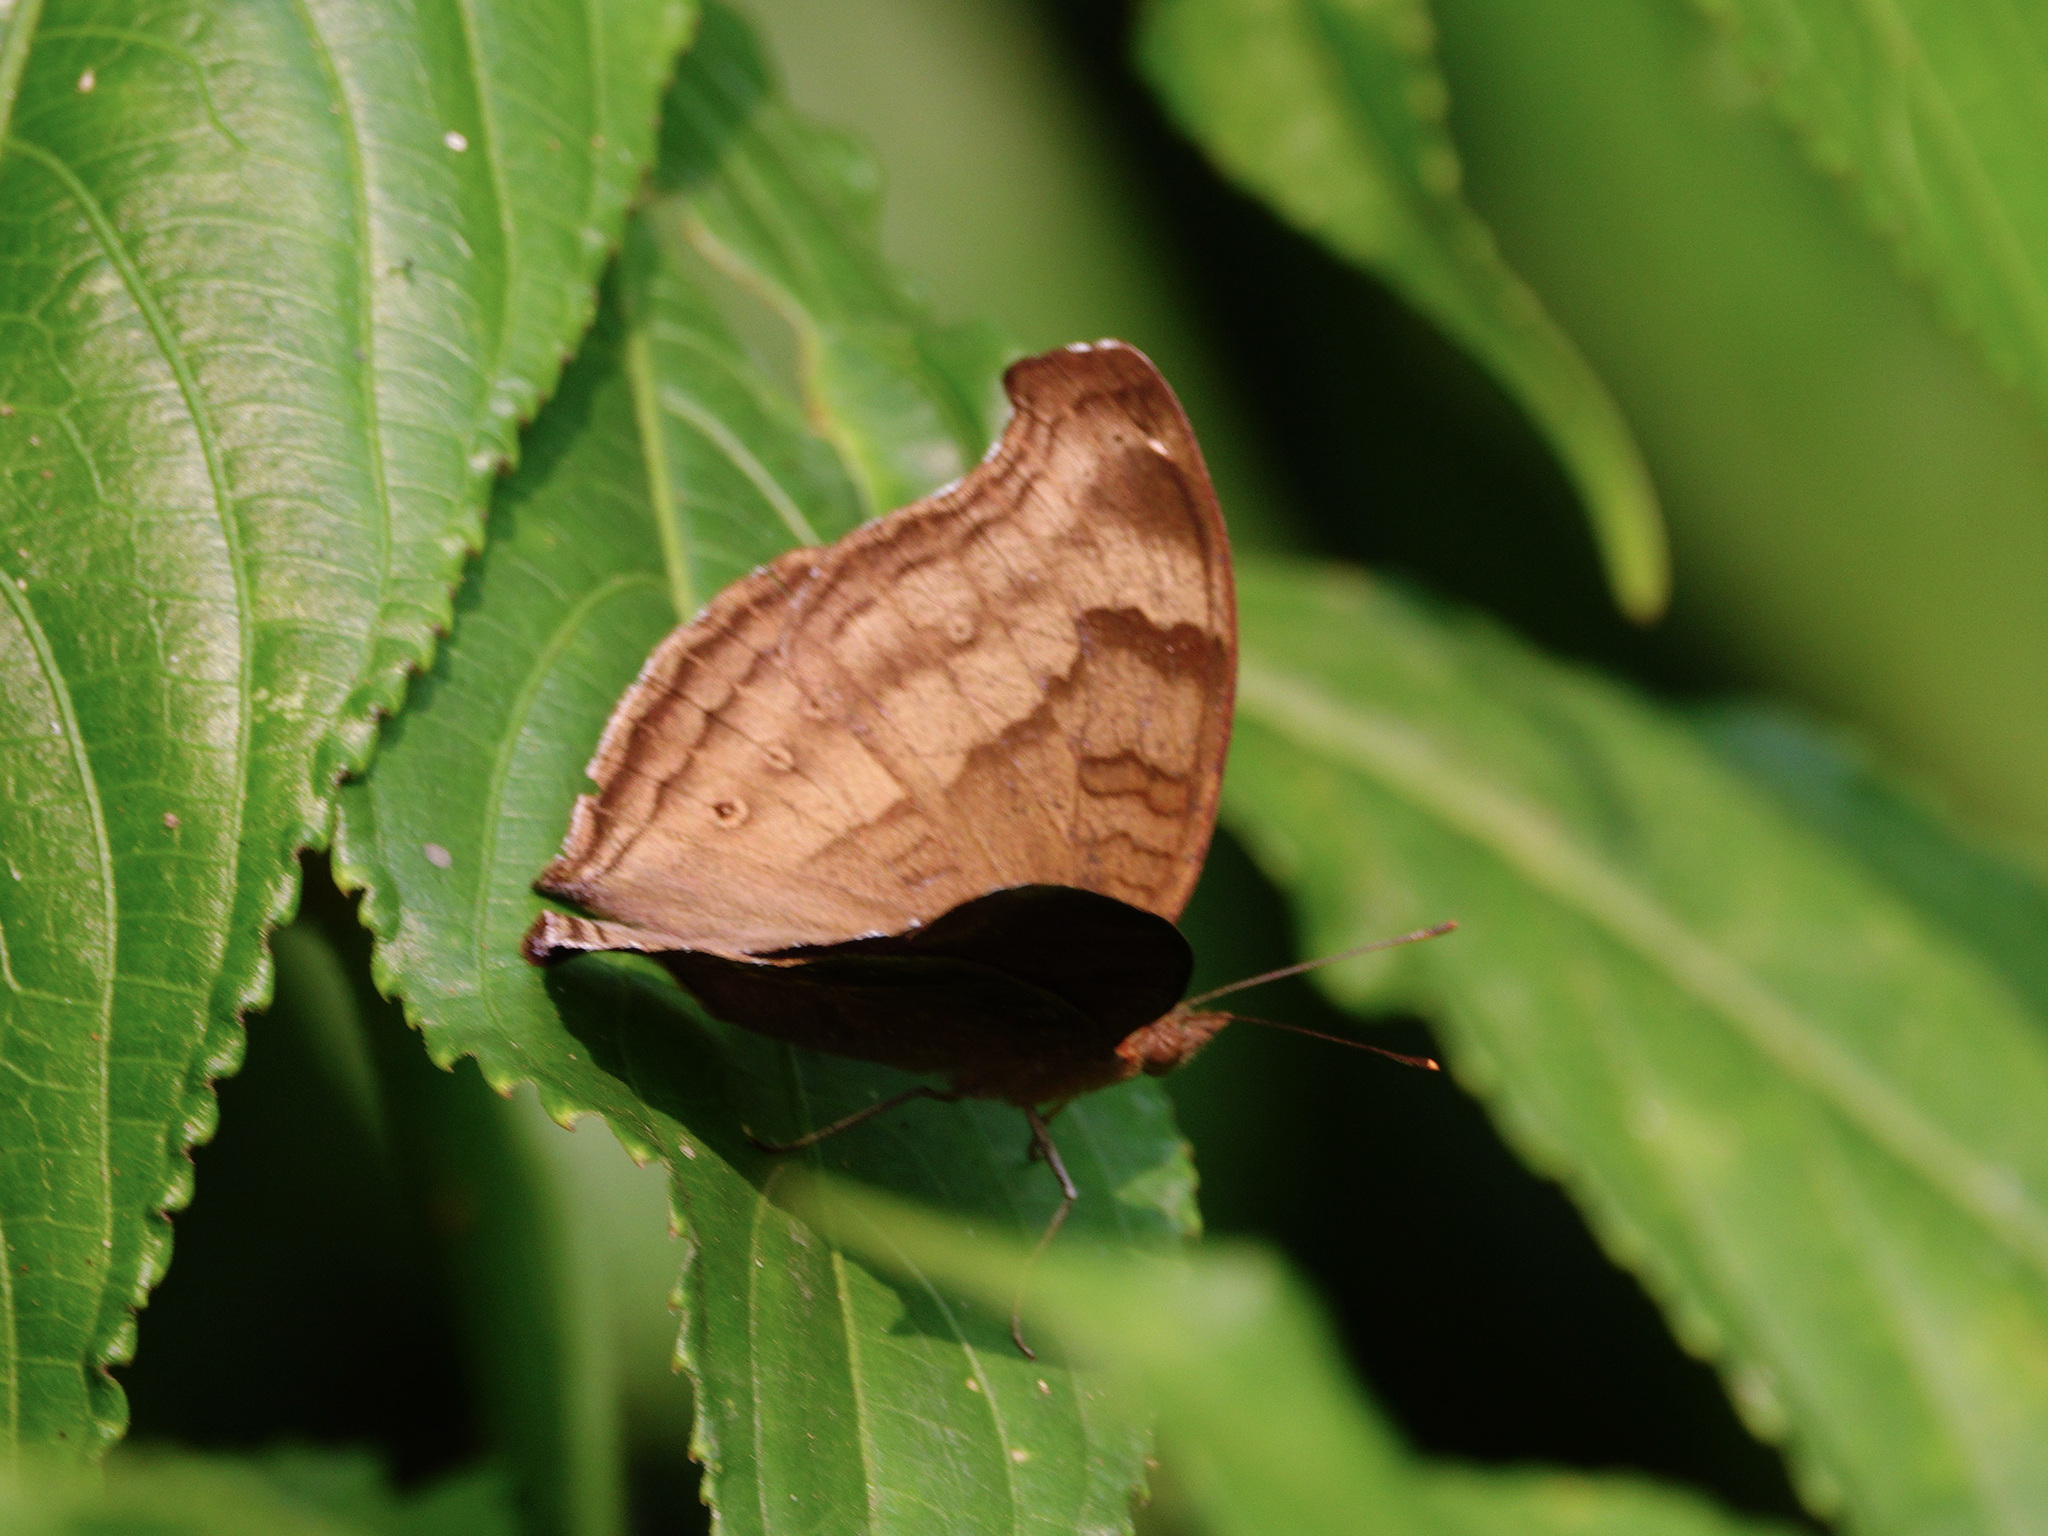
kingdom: Animalia
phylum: Arthropoda
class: Insecta
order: Lepidoptera
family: Nymphalidae
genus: Junonia
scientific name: Junonia iphita
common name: Chocolate pansy
